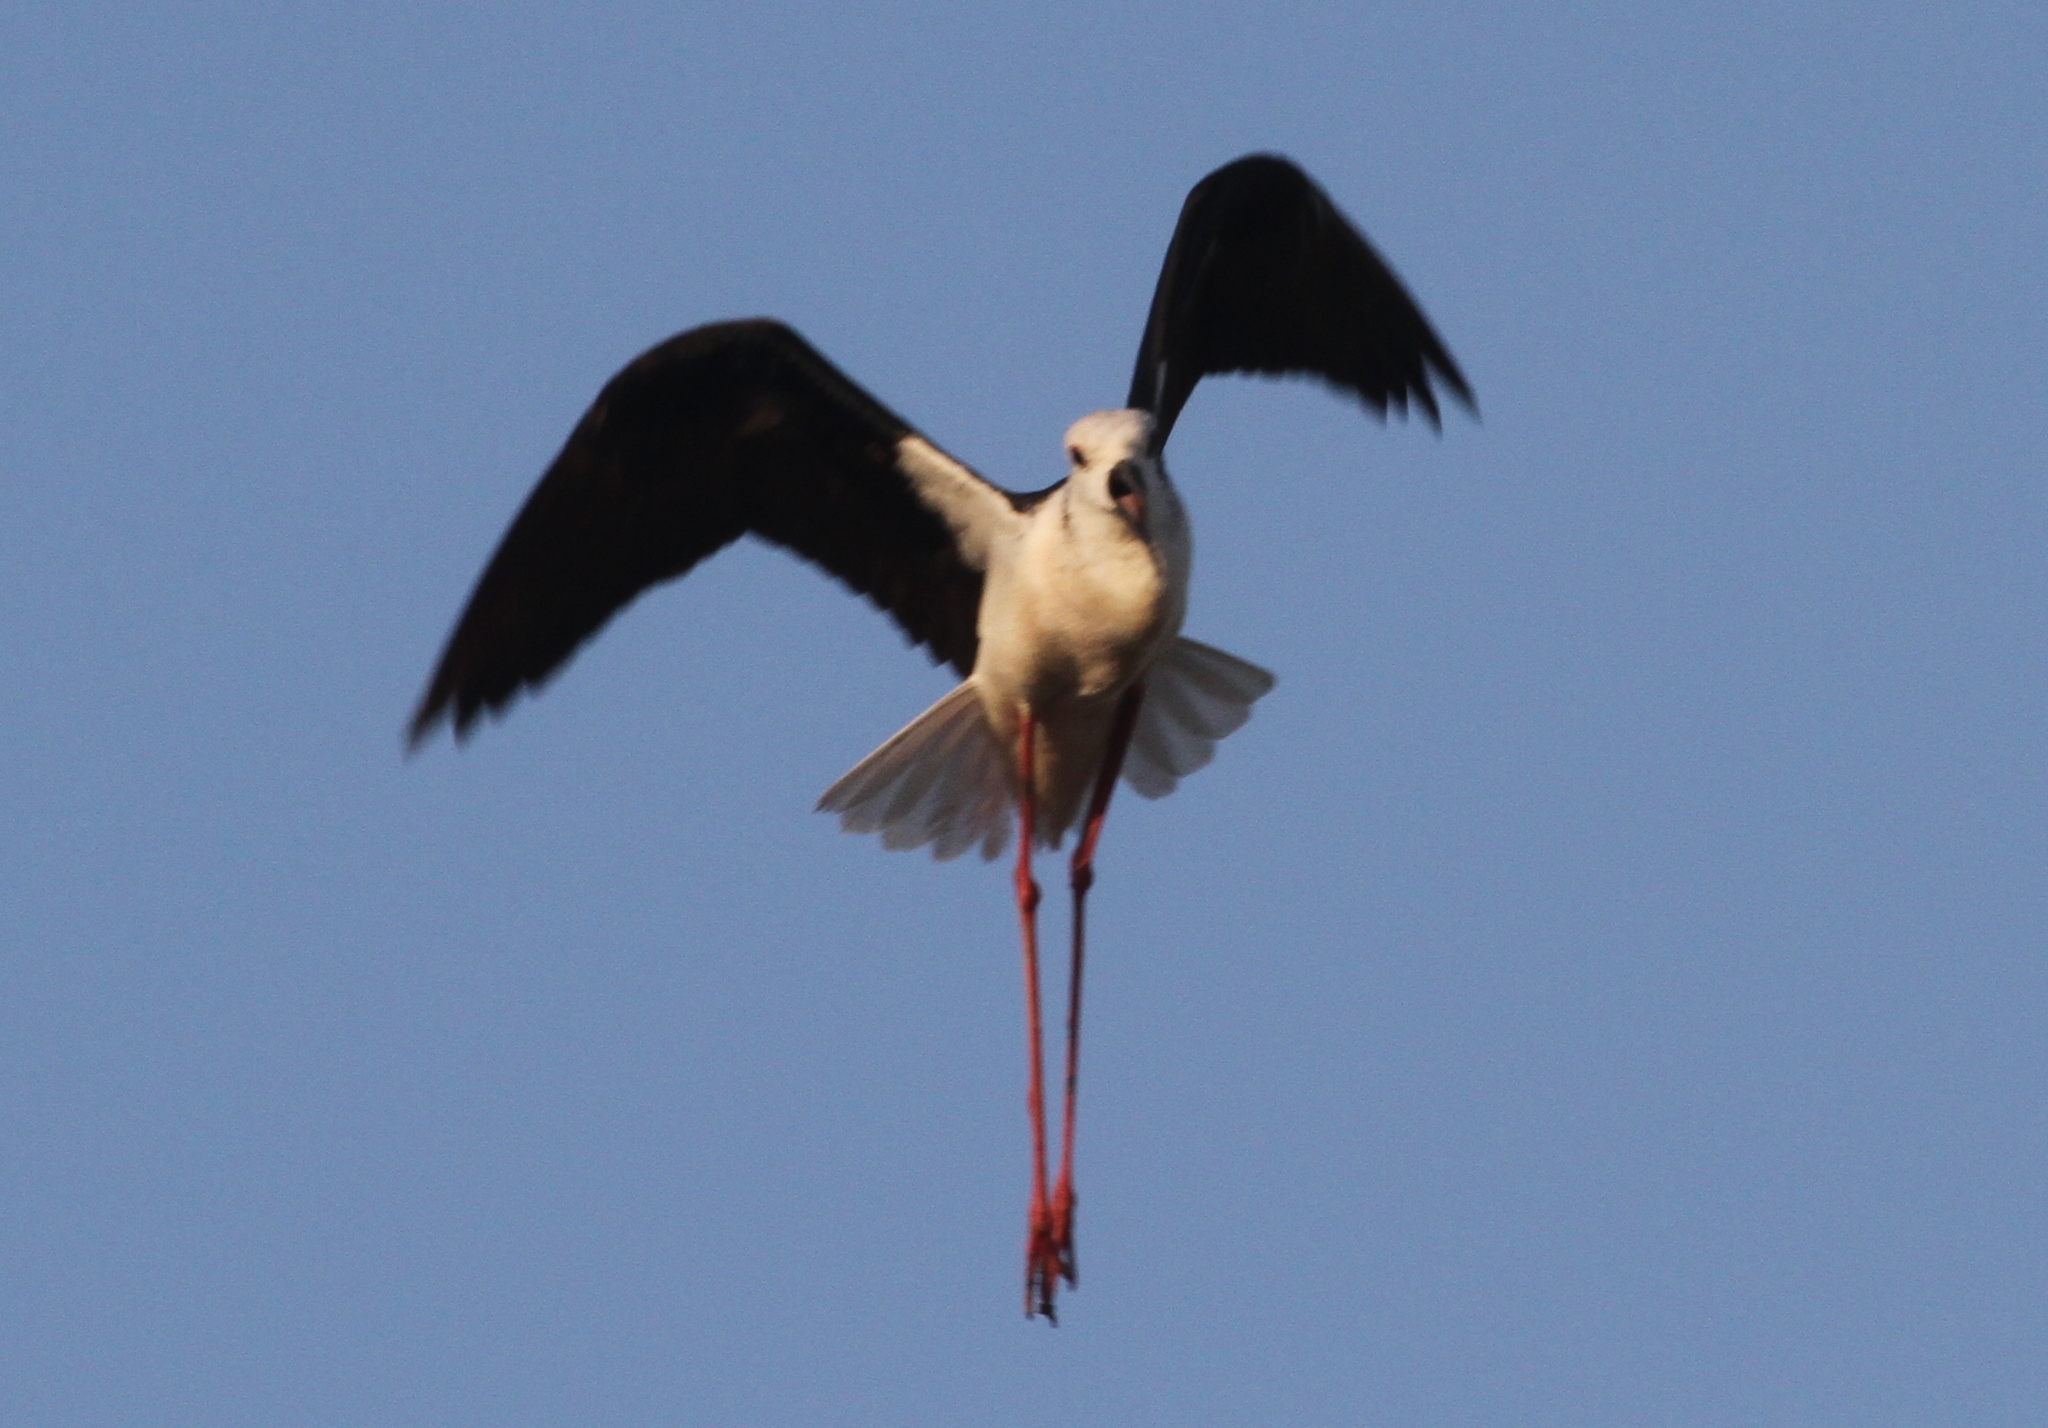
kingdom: Animalia
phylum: Chordata
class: Aves
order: Charadriiformes
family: Recurvirostridae
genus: Himantopus
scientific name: Himantopus himantopus
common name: Black-winged stilt
